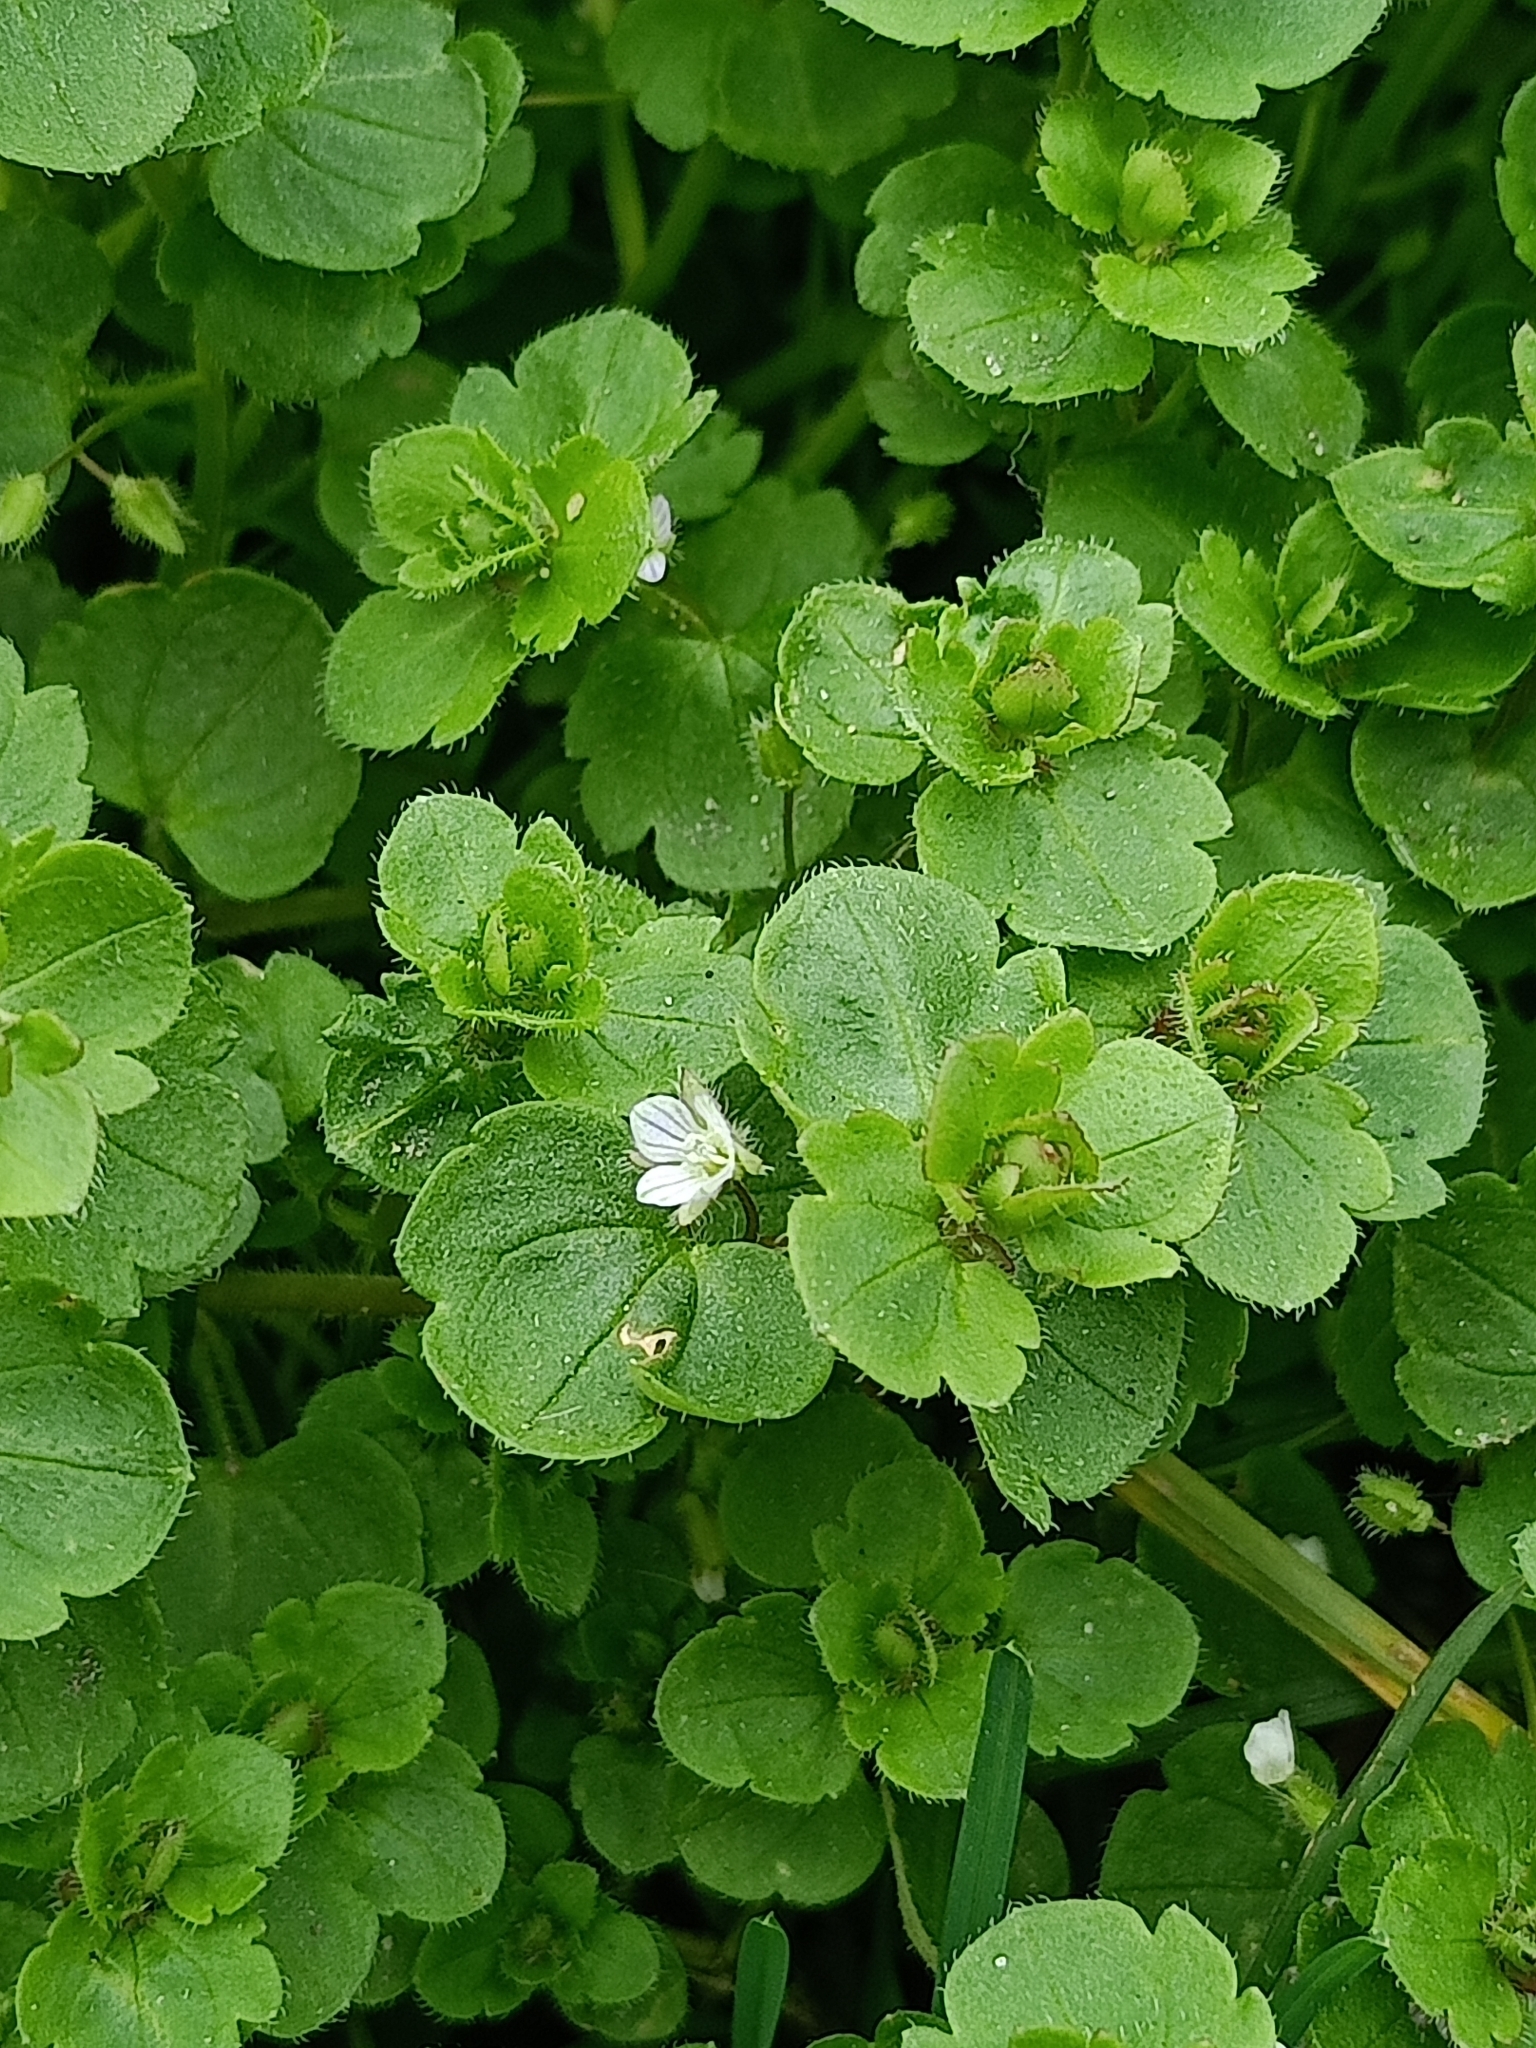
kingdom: Plantae
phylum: Tracheophyta
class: Magnoliopsida
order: Lamiales
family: Plantaginaceae
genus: Veronica
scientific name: Veronica sublobata
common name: False ivy-leaved speedwell
